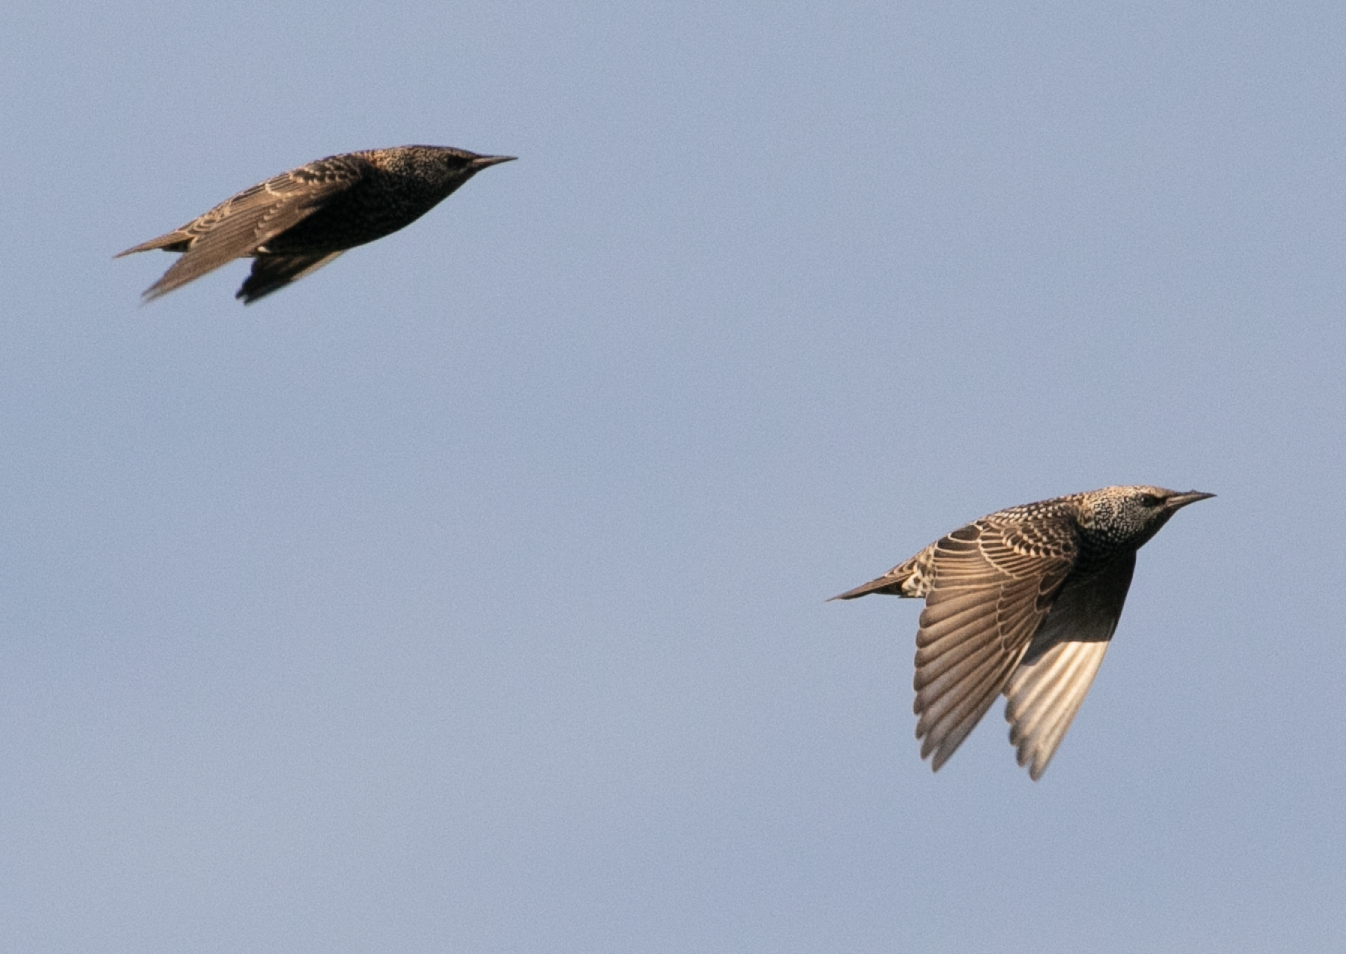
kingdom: Animalia
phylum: Chordata
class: Aves
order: Passeriformes
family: Sturnidae
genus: Sturnus
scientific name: Sturnus vulgaris
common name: Common starling
